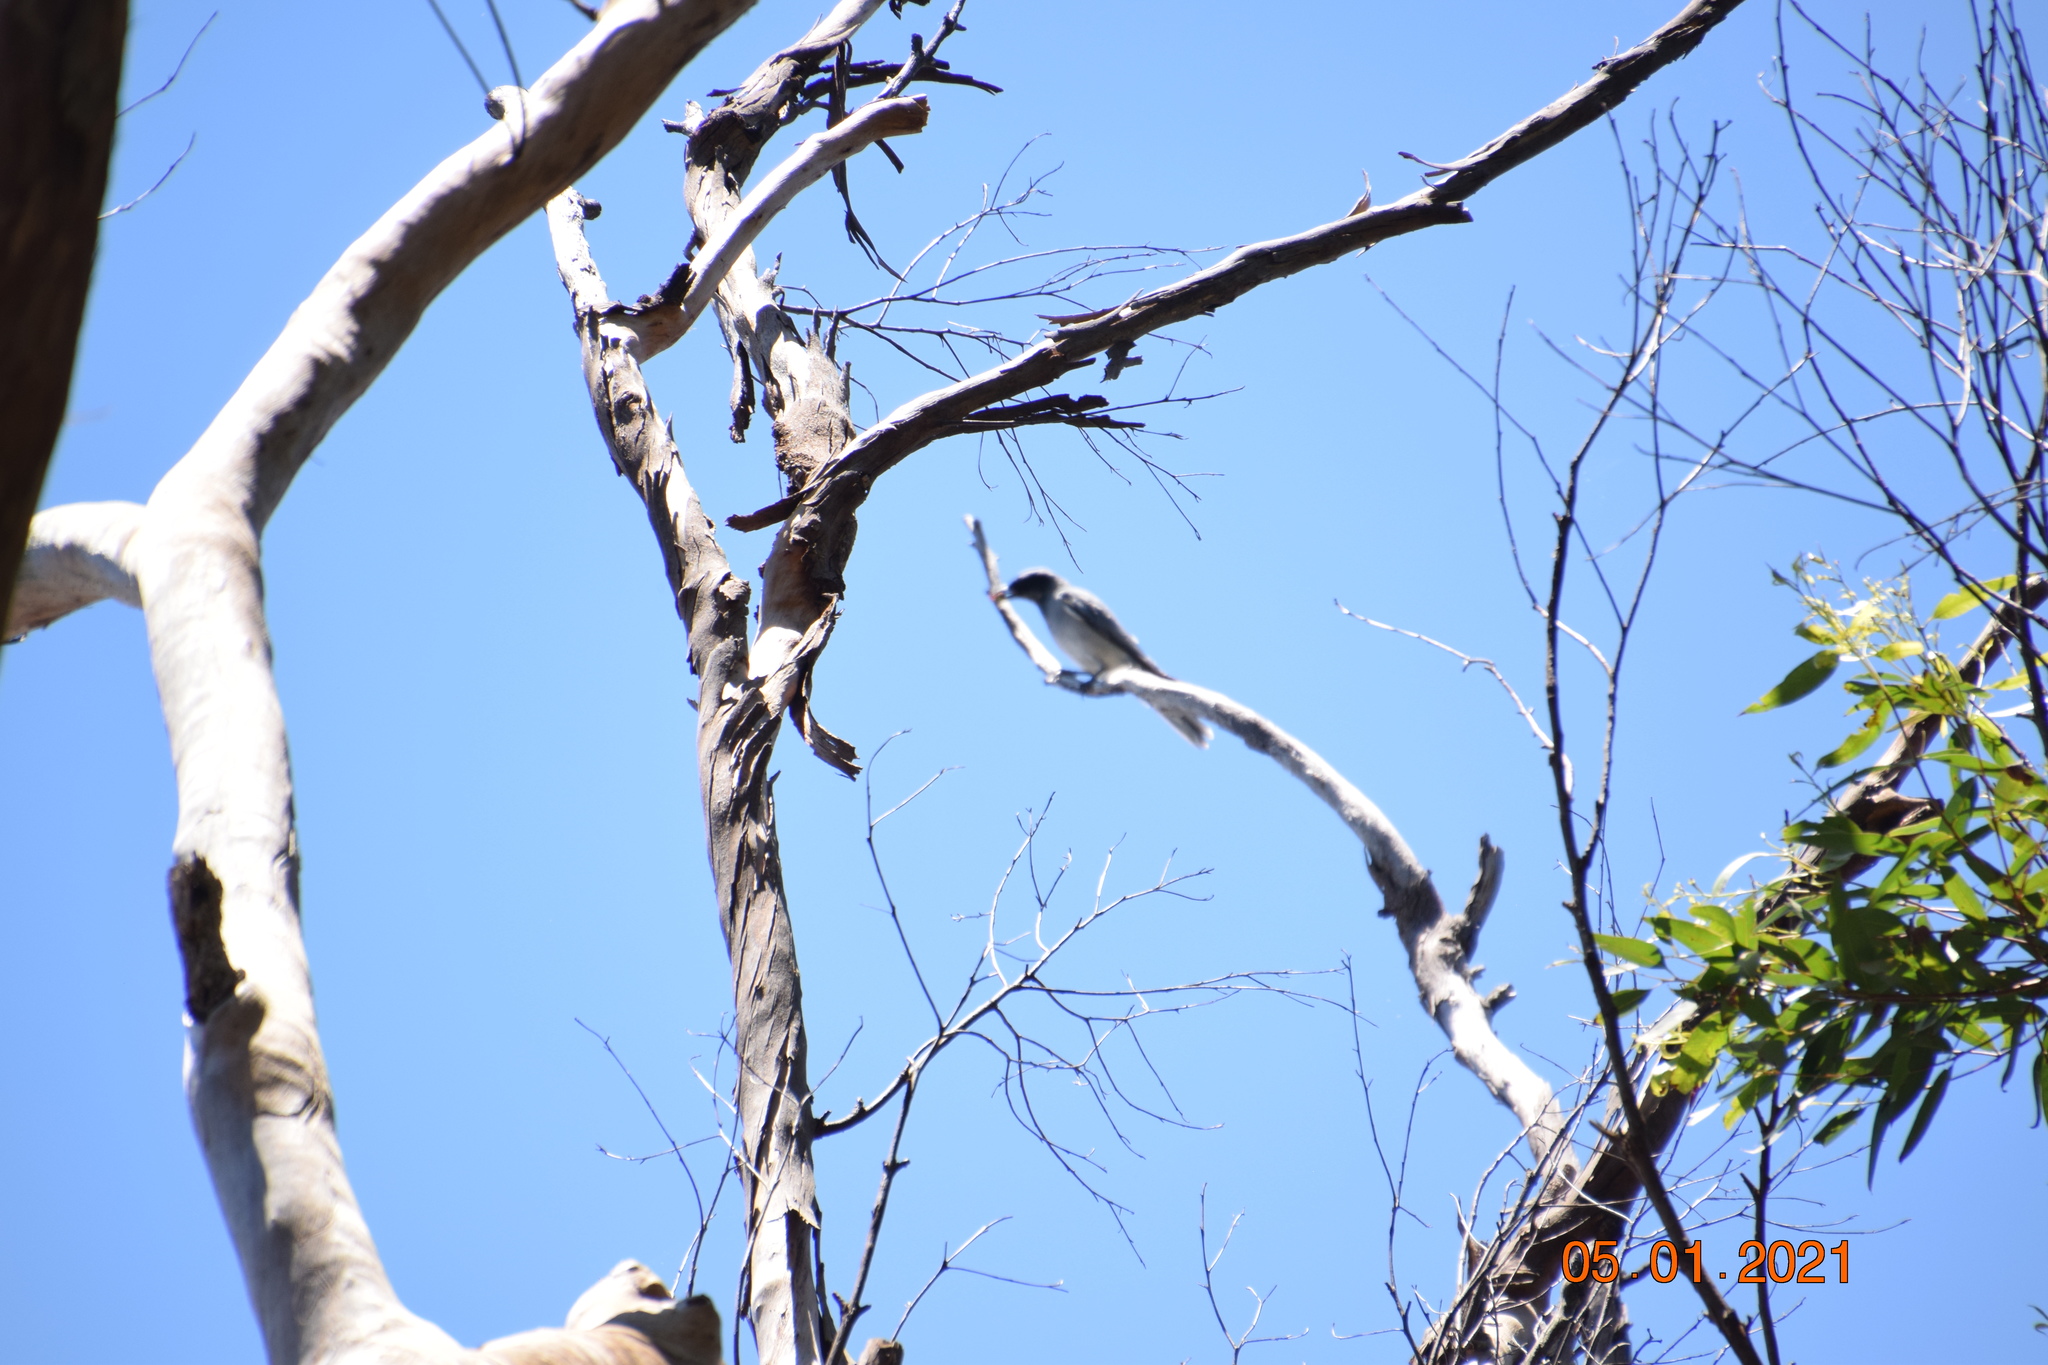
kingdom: Animalia
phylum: Chordata
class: Aves
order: Passeriformes
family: Campephagidae
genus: Coracina
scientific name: Coracina novaehollandiae
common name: Black-faced cuckooshrike
